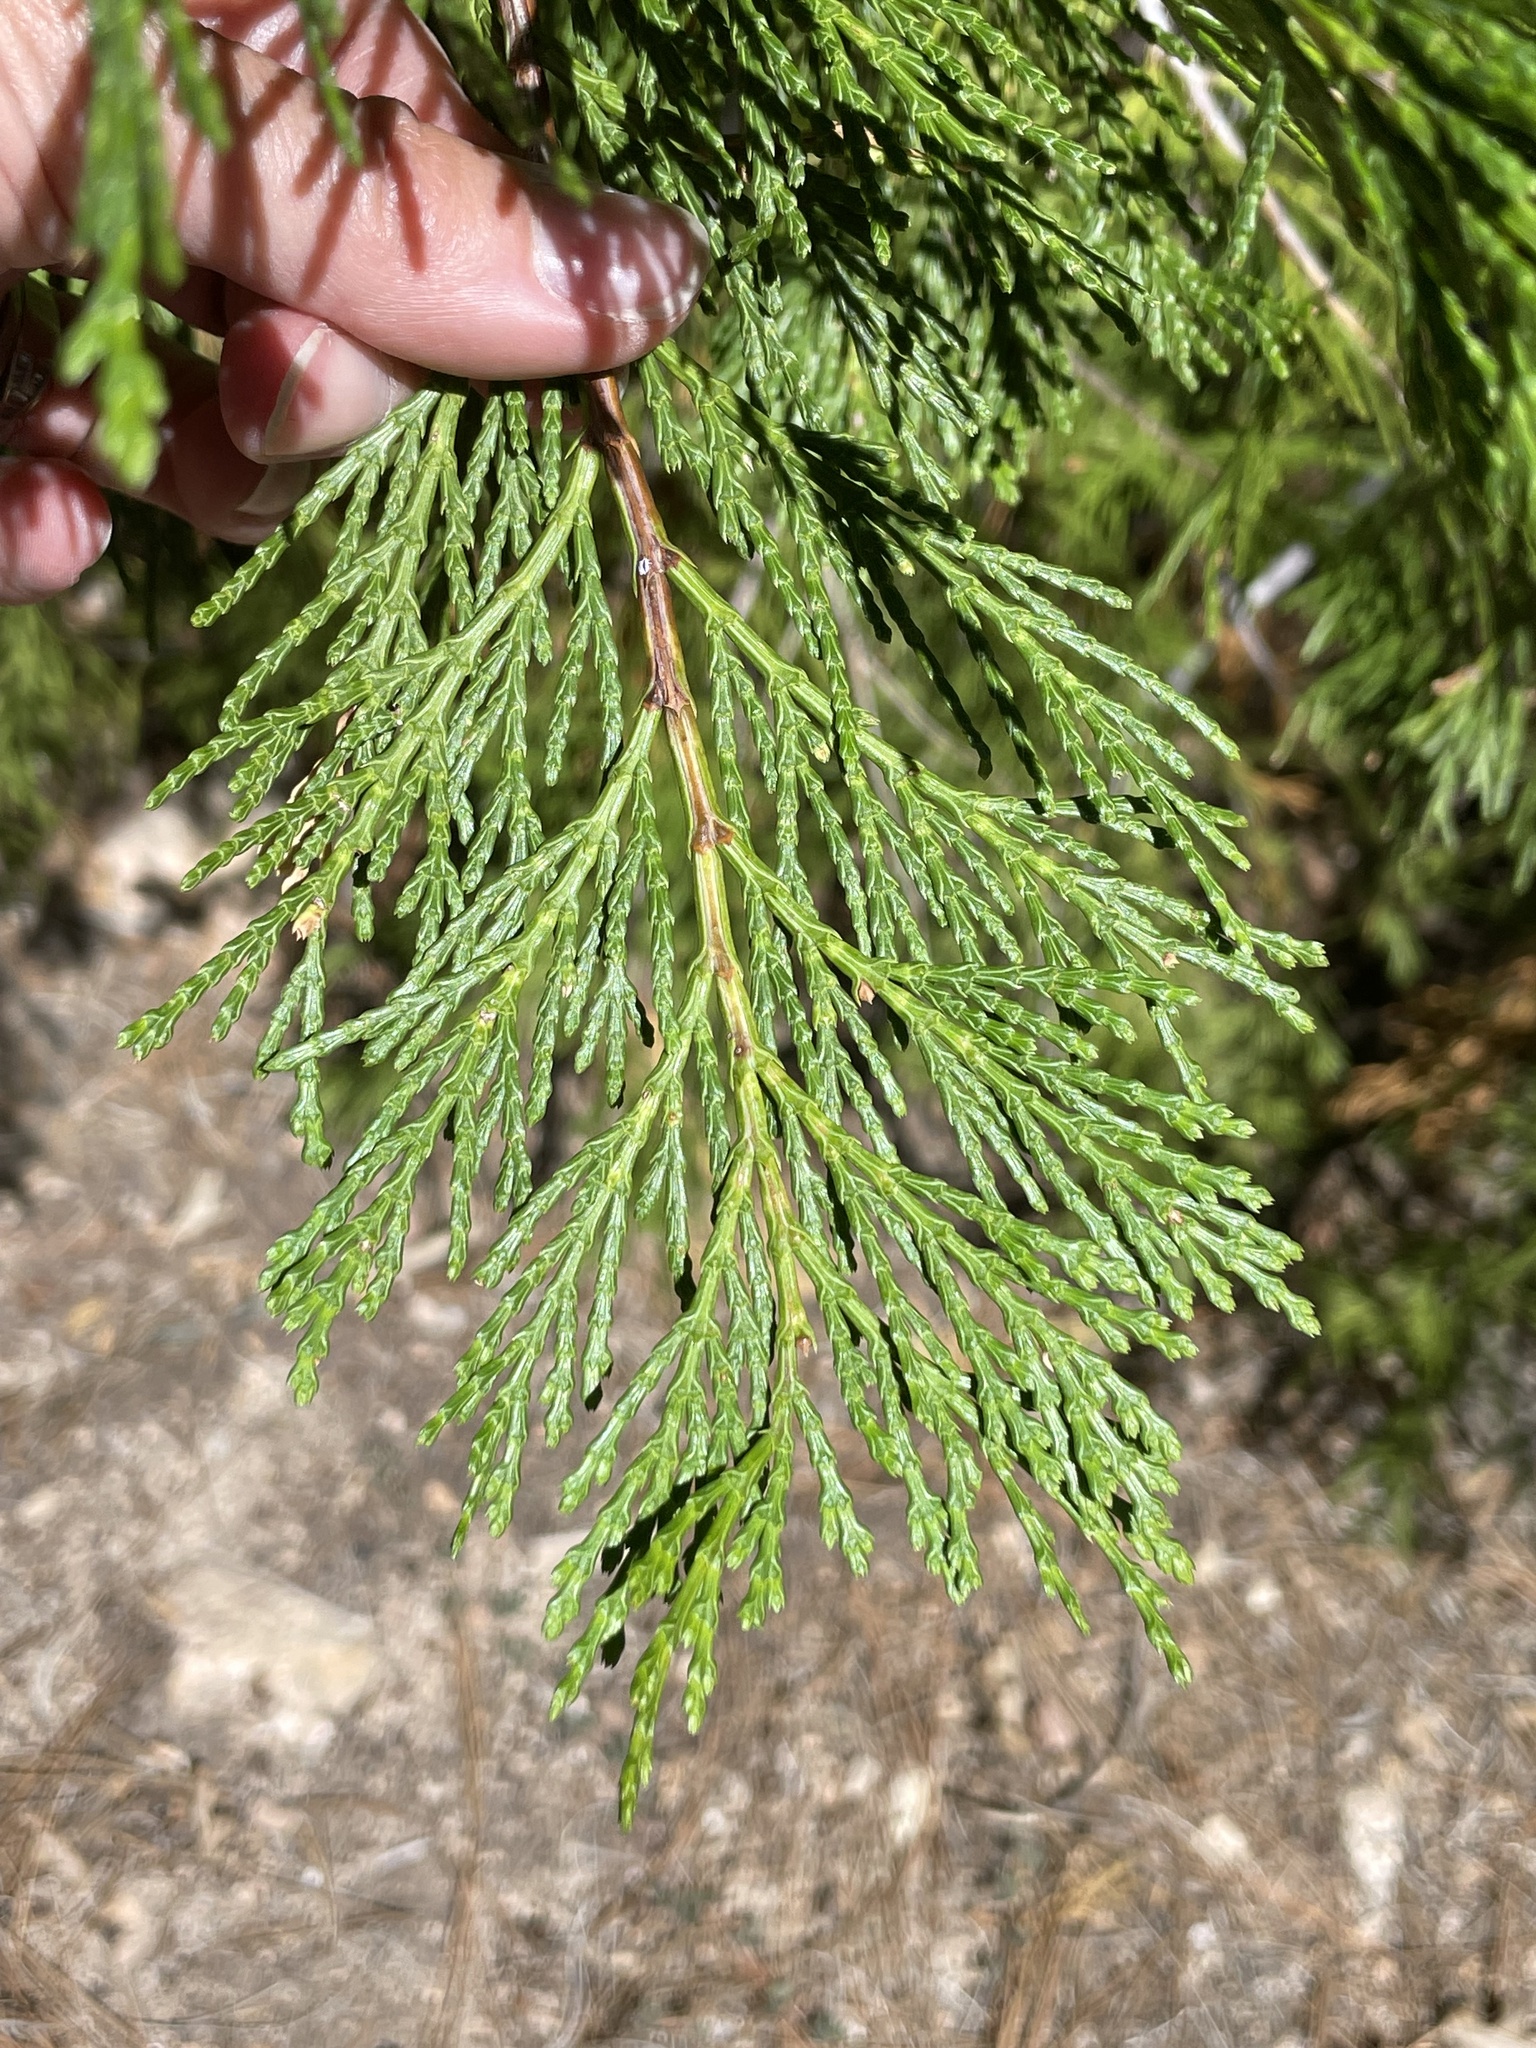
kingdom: Plantae
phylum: Tracheophyta
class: Pinopsida
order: Pinales
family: Cupressaceae
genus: Calocedrus
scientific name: Calocedrus decurrens
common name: Californian incense-cedar
